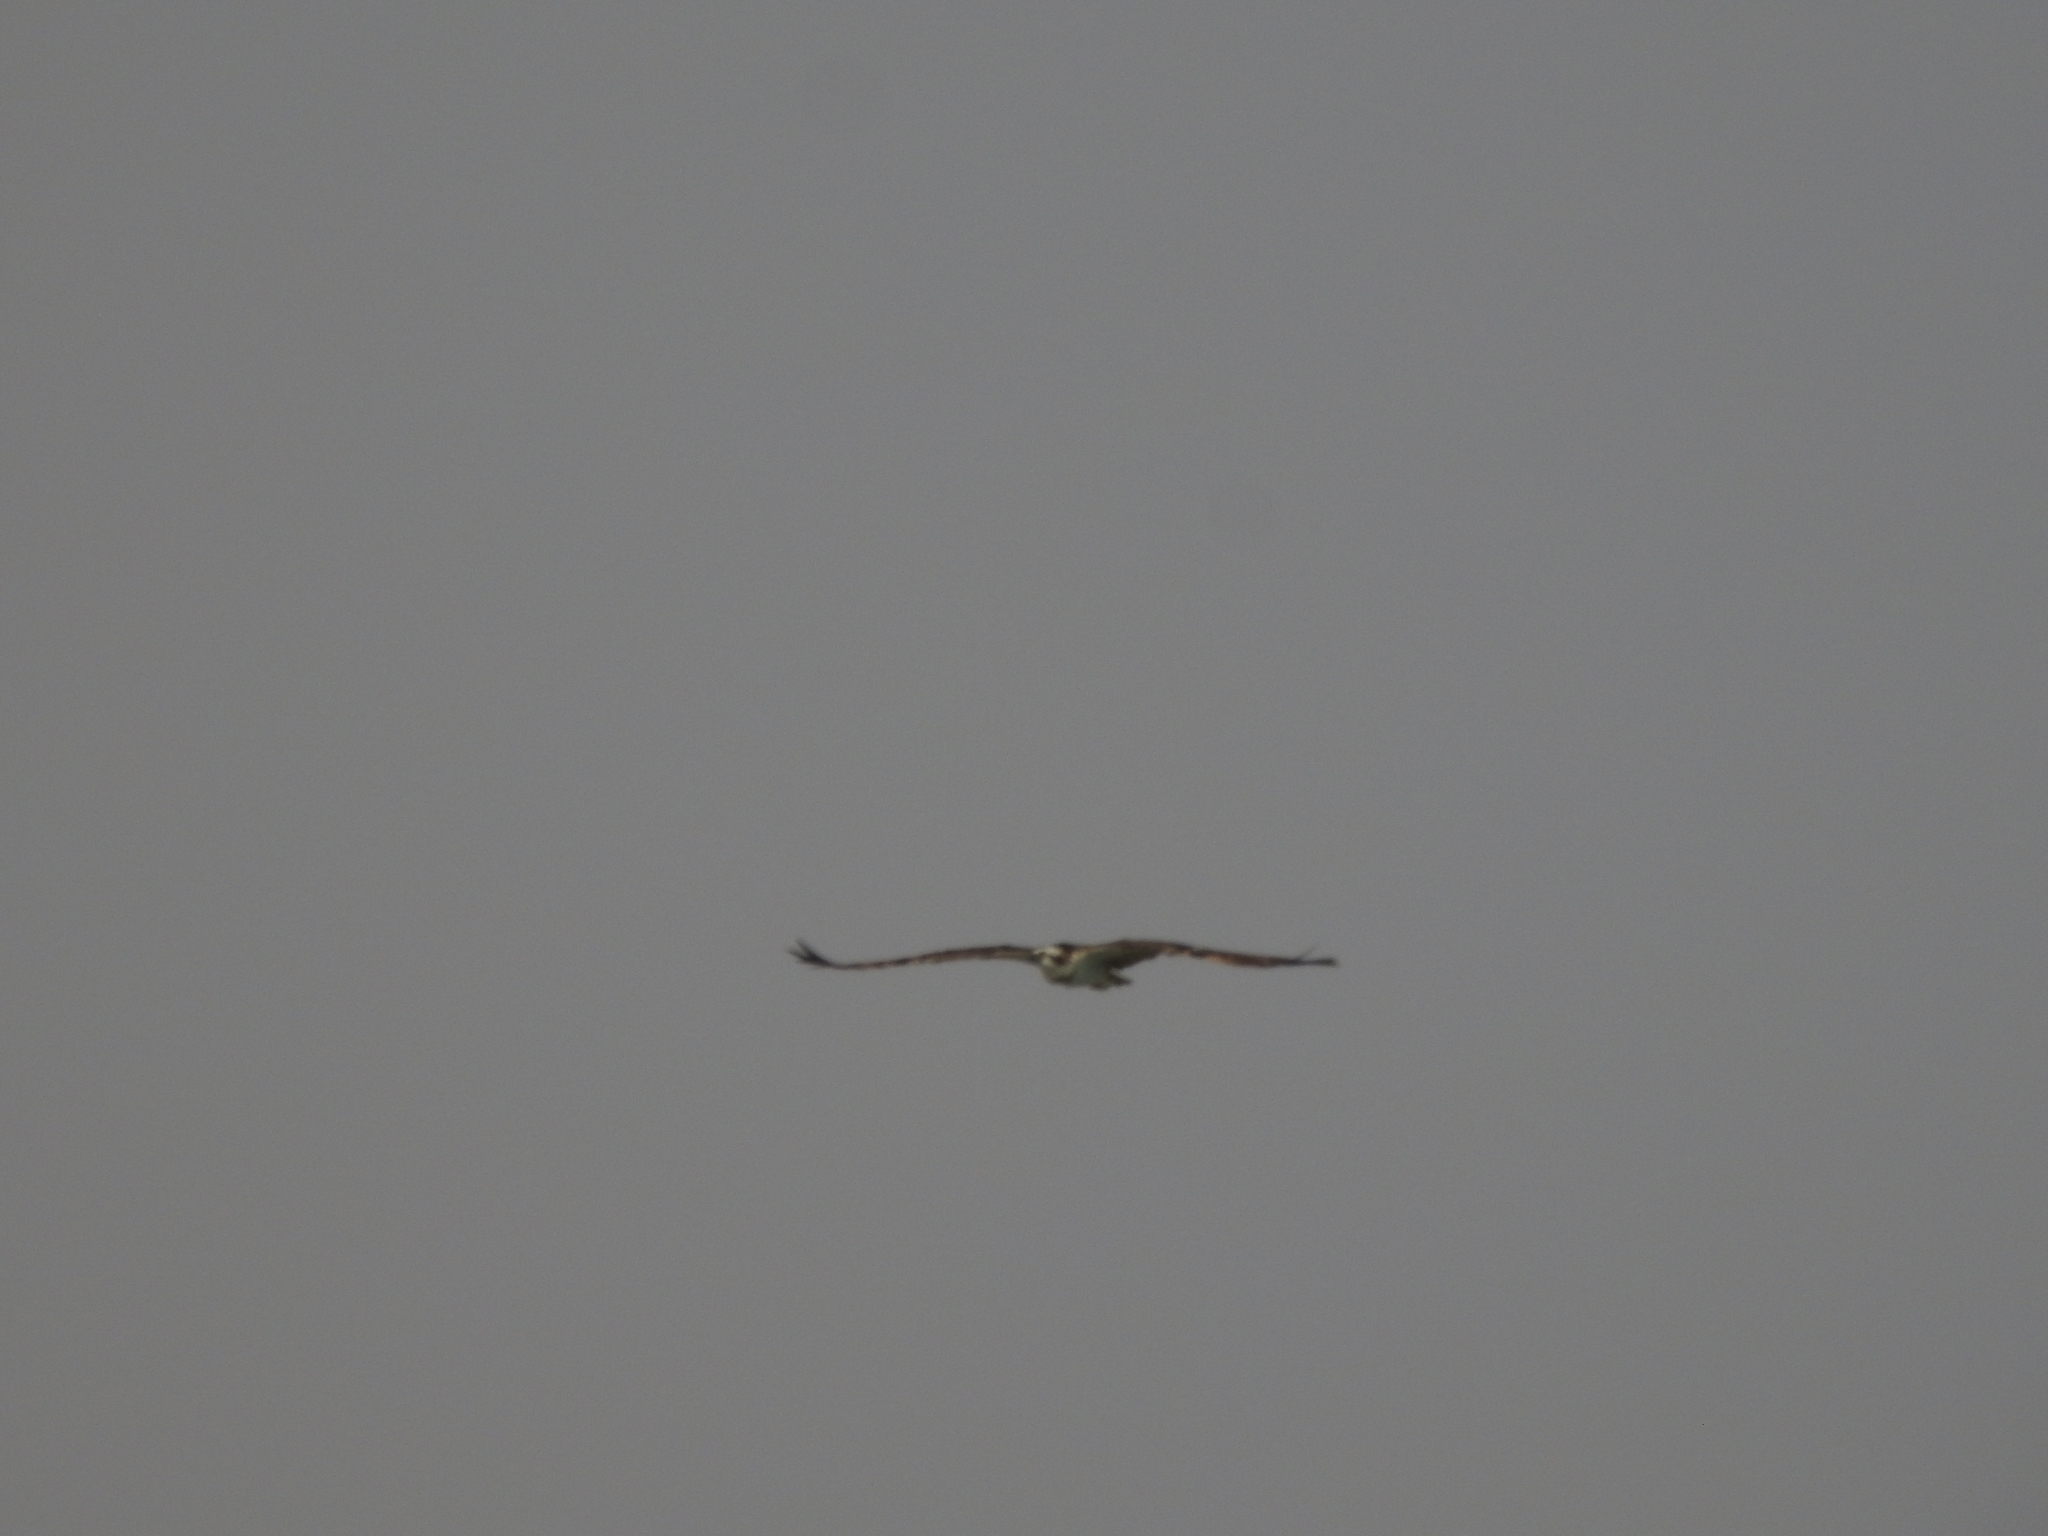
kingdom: Animalia
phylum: Chordata
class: Aves
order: Accipitriformes
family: Pandionidae
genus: Pandion
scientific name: Pandion haliaetus
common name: Osprey
